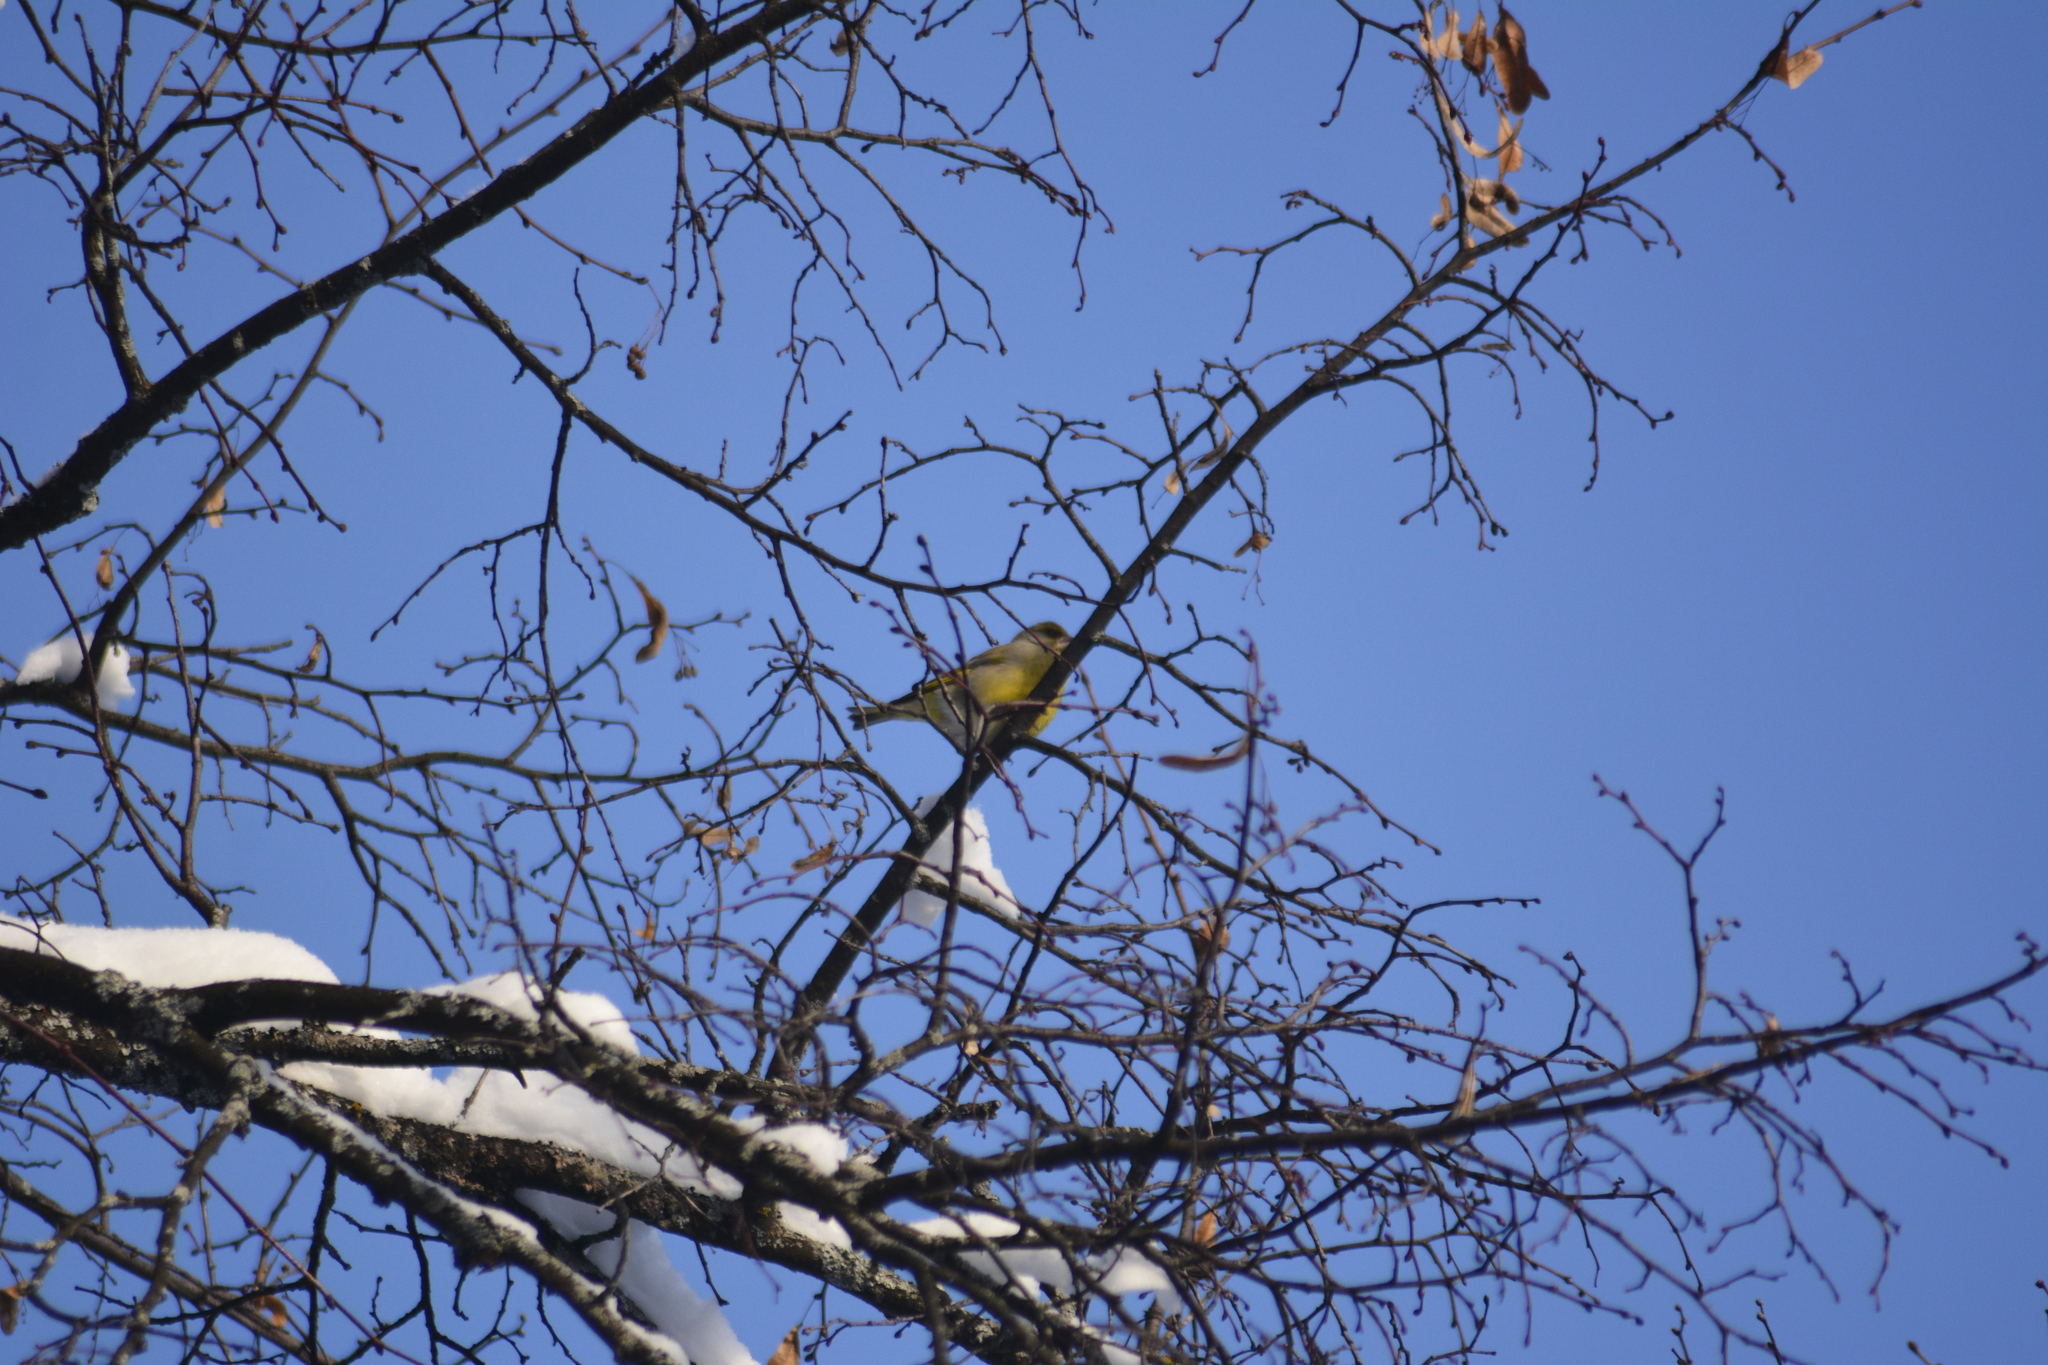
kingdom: Plantae
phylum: Tracheophyta
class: Liliopsida
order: Poales
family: Poaceae
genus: Chloris
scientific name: Chloris chloris
